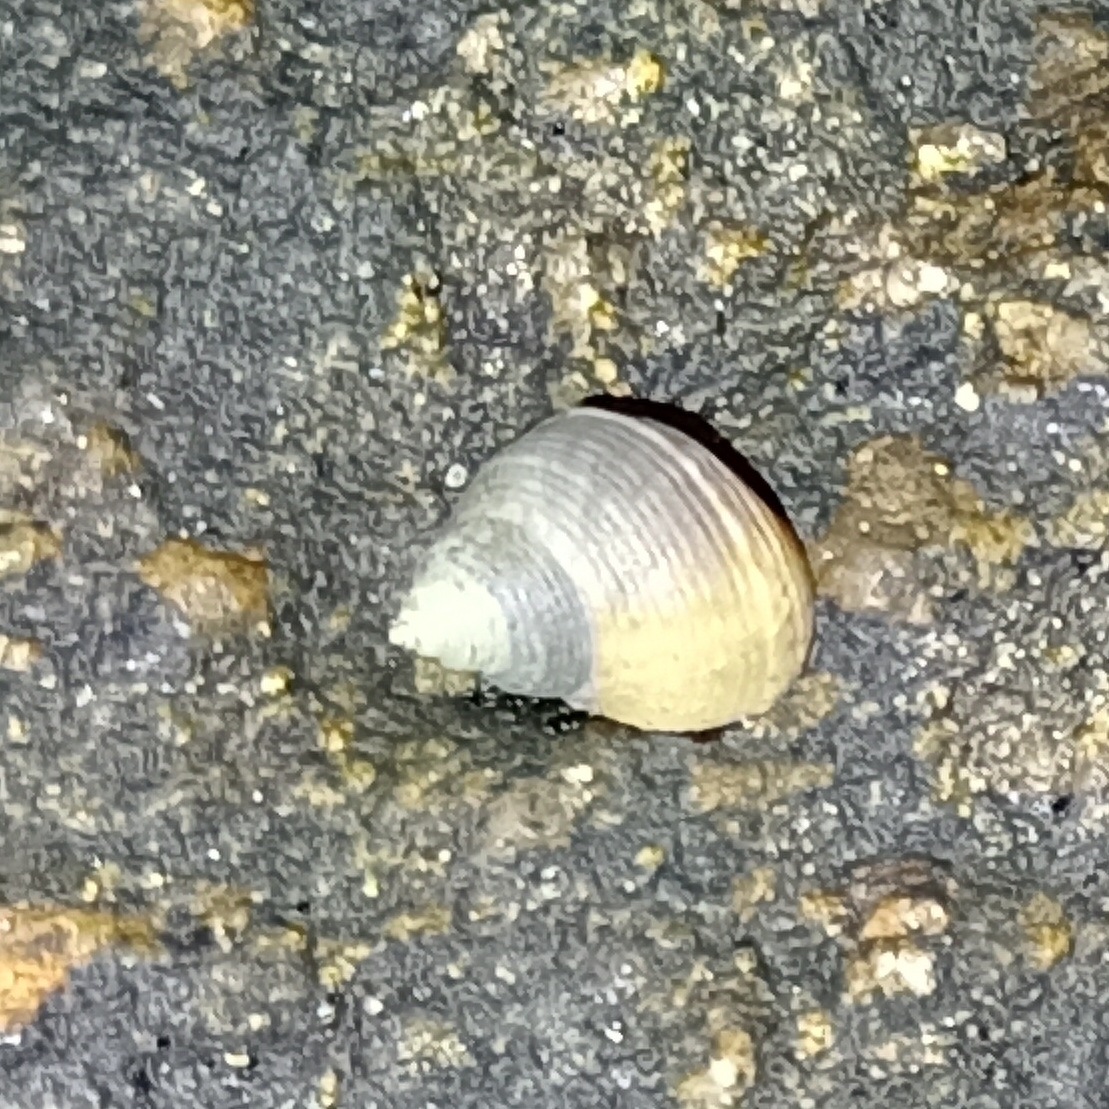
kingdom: Animalia
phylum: Mollusca
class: Gastropoda
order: Littorinimorpha
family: Littorinidae
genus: Littoraria
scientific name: Littoraria flava
